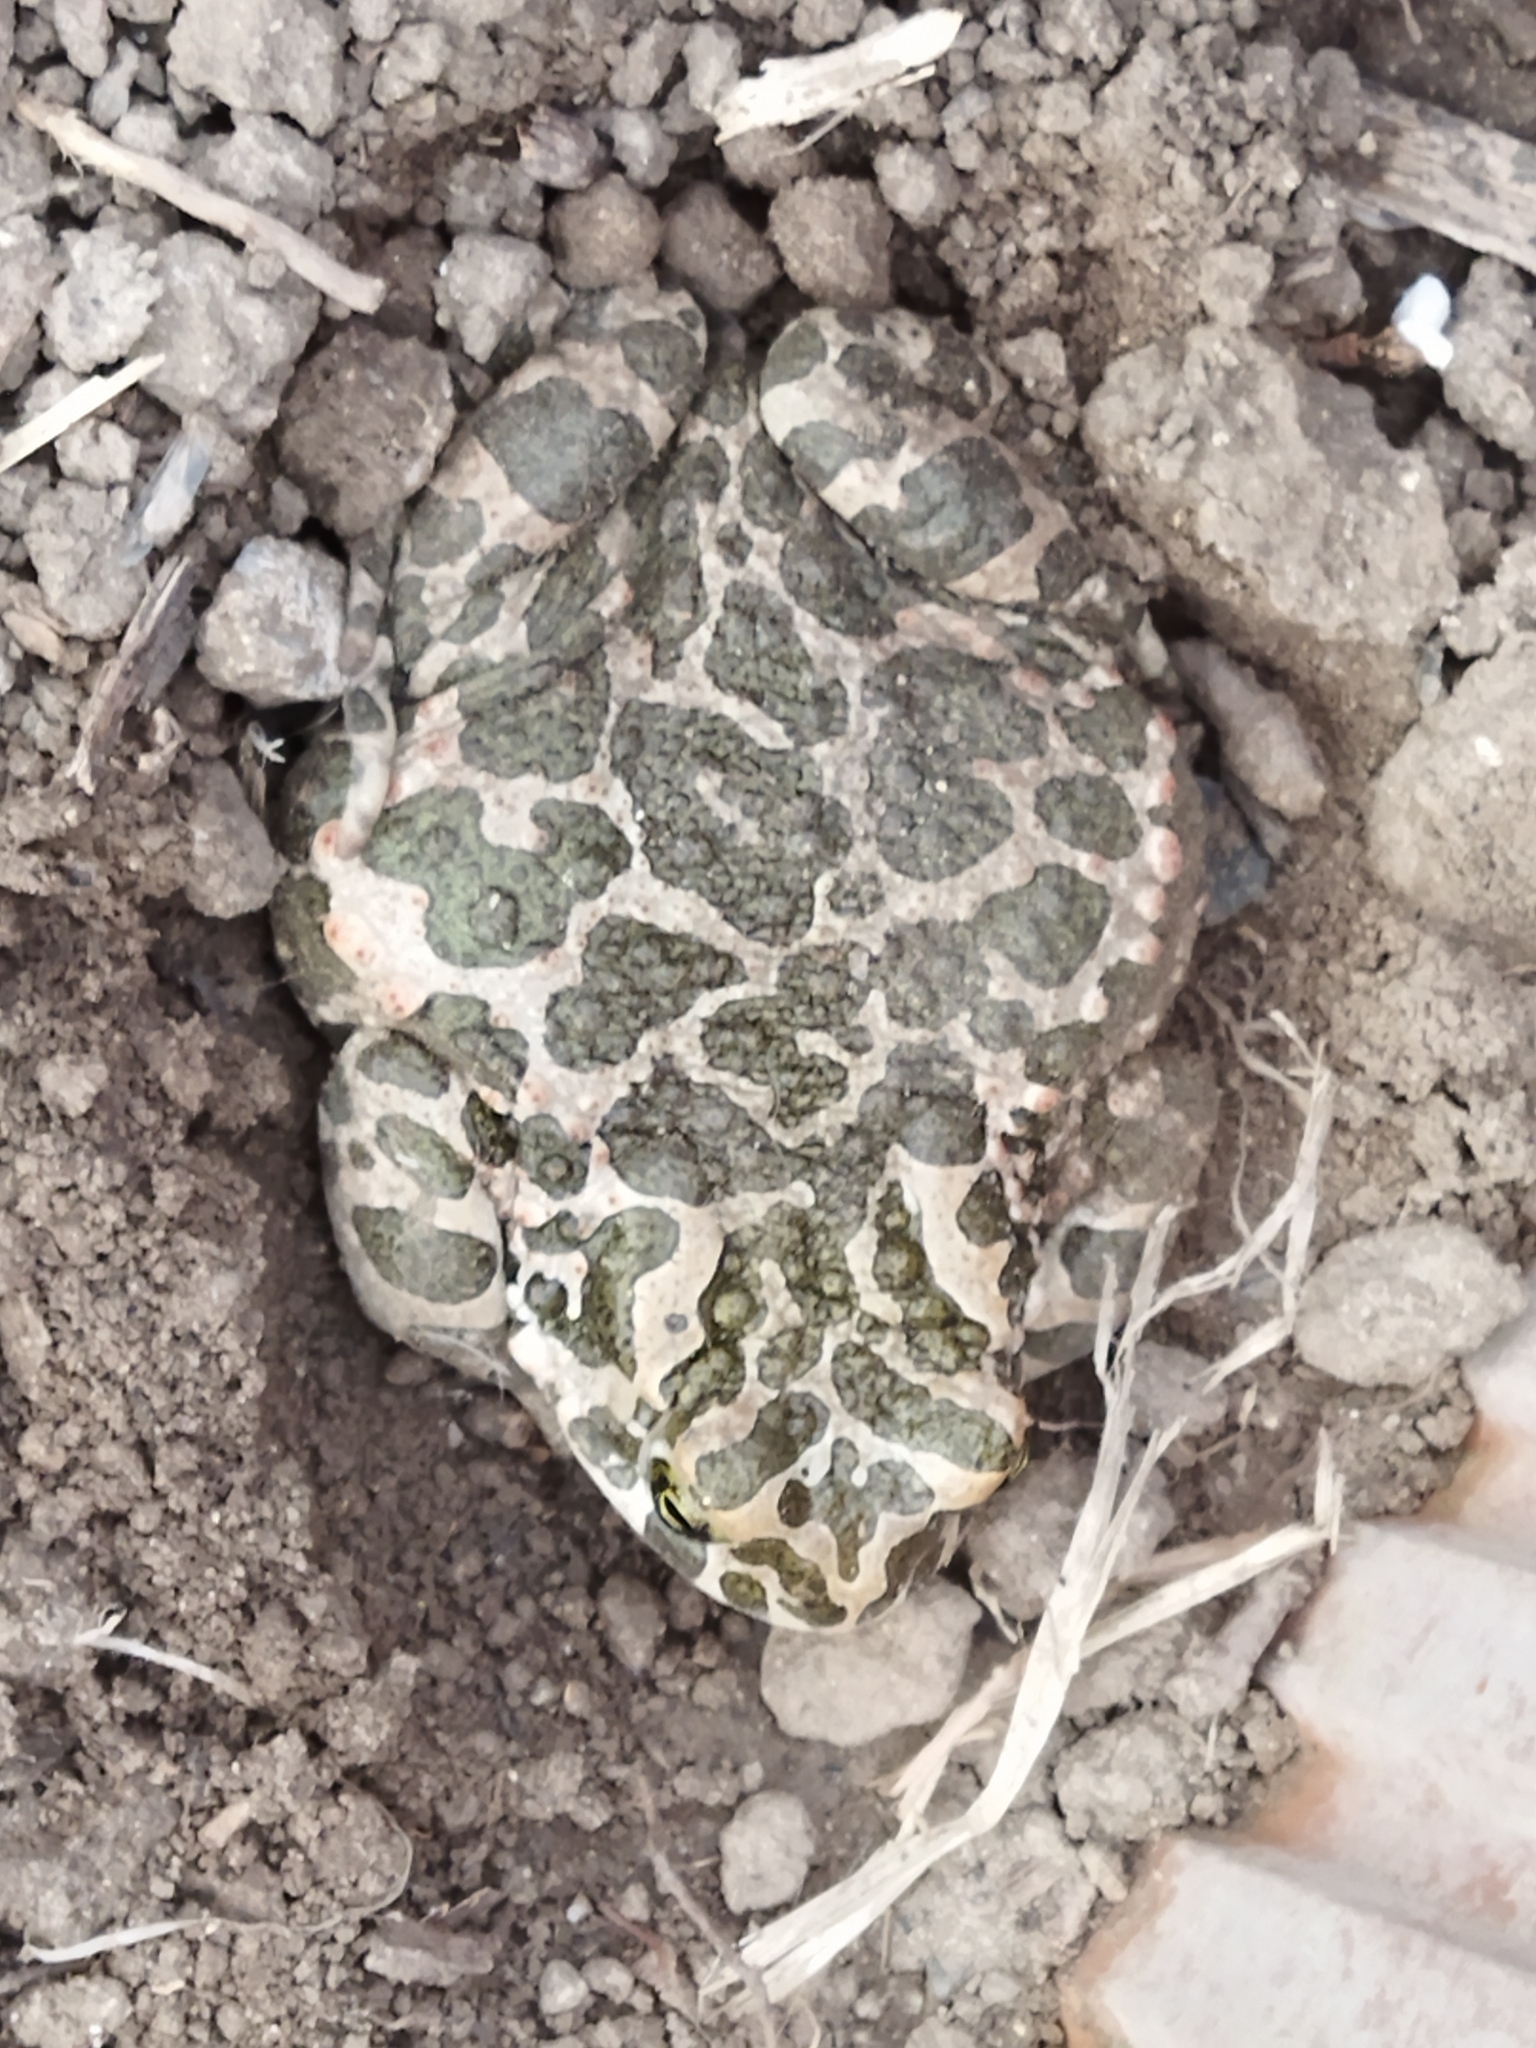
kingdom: Animalia
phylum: Chordata
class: Amphibia
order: Anura
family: Bufonidae
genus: Bufotes
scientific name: Bufotes viridis
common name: European green toad
